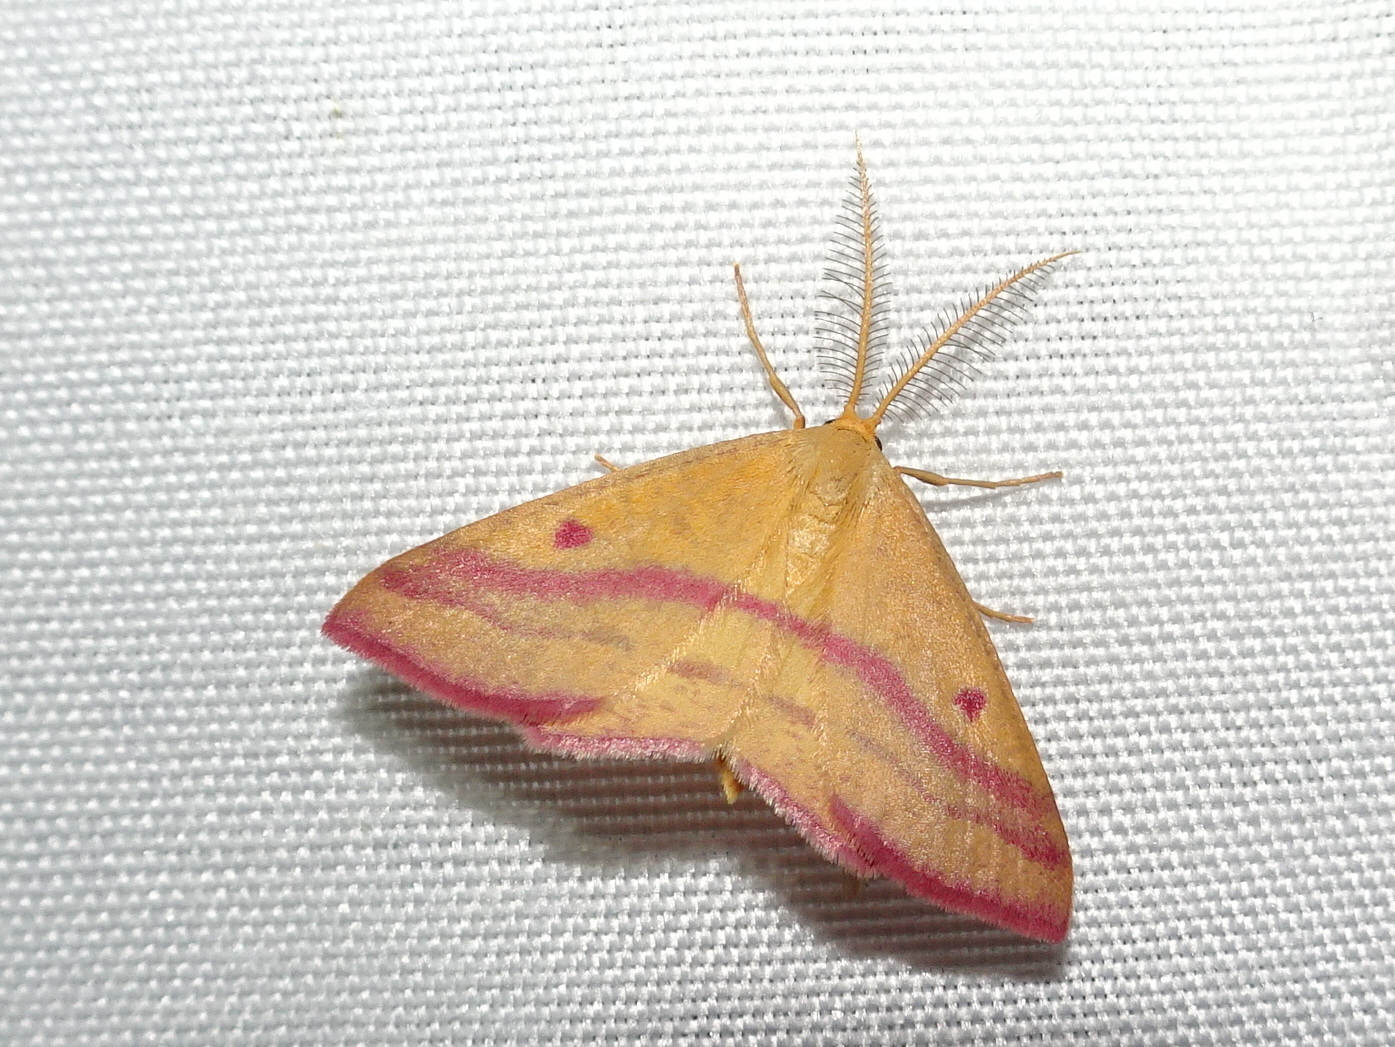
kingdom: Animalia
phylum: Arthropoda
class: Insecta
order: Lepidoptera
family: Geometridae
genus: Haematopis
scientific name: Haematopis grataria
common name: Chickweed geometer
